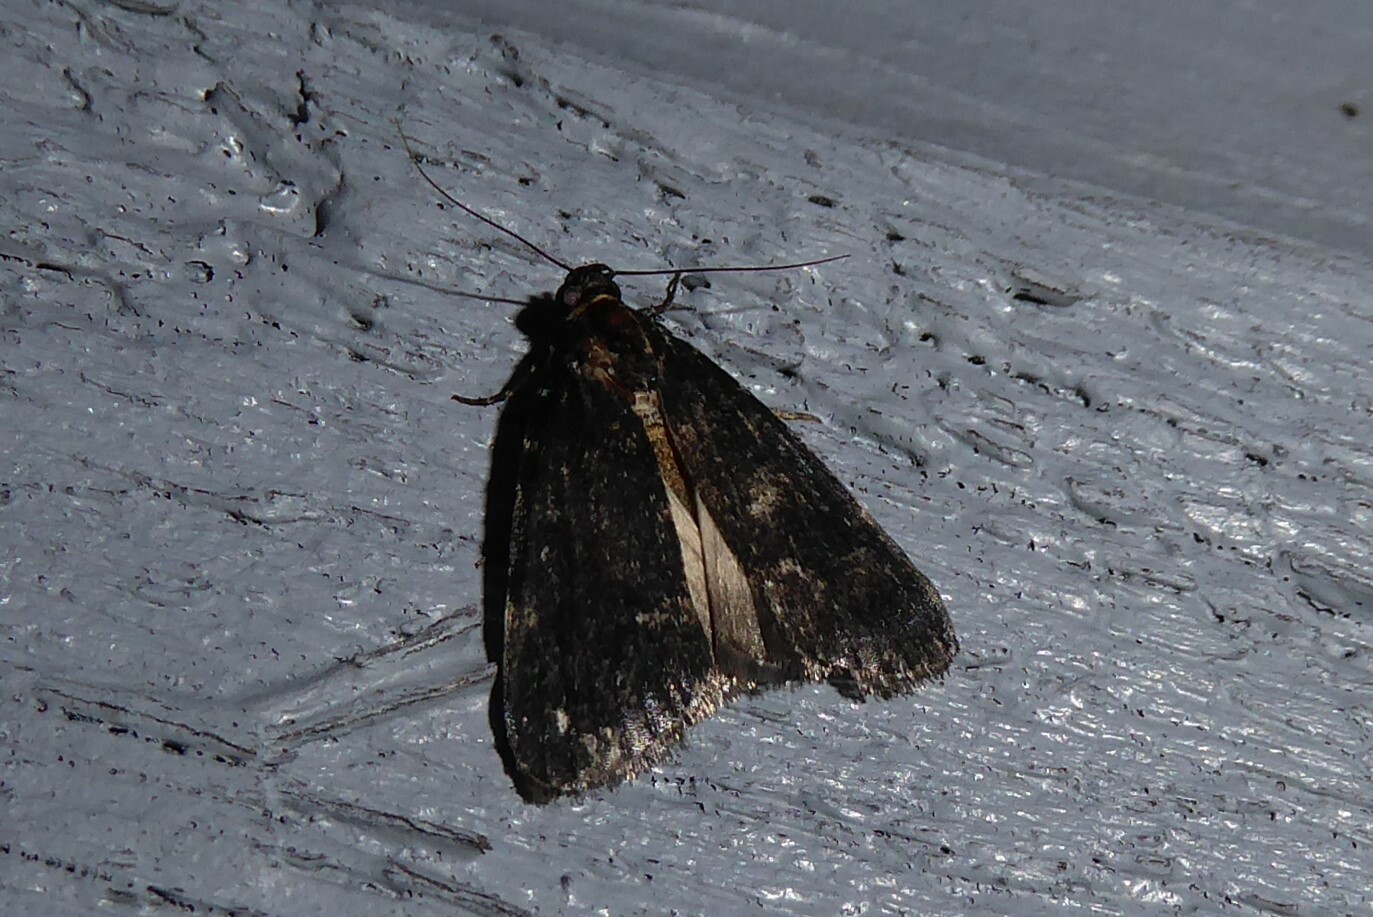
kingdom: Animalia
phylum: Arthropoda
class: Insecta
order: Lepidoptera
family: Pyralidae
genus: Stericta
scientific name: Stericta carbonalis
